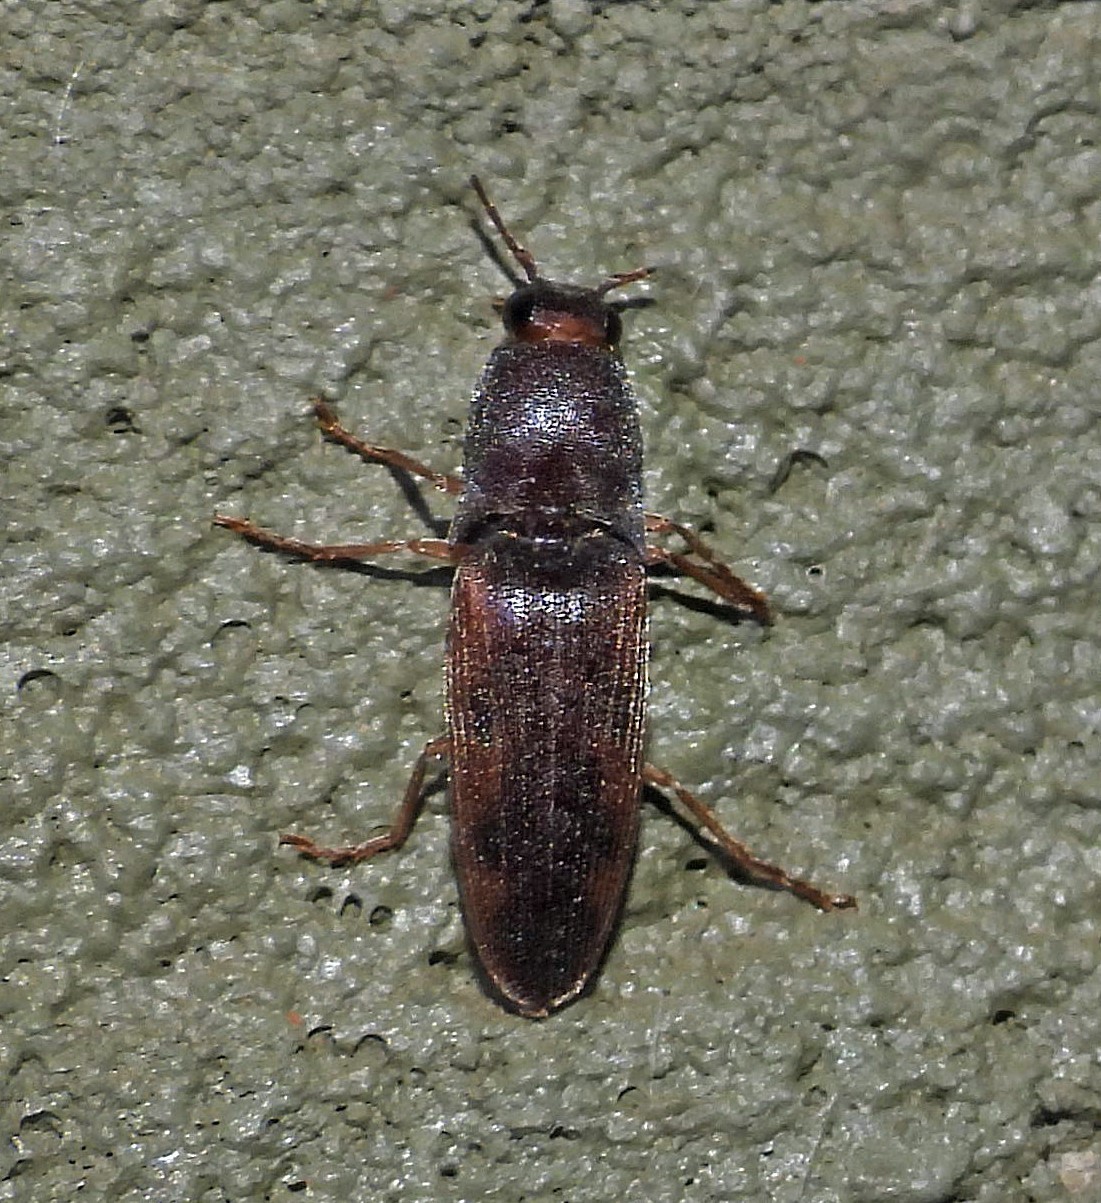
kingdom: Animalia
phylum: Arthropoda
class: Insecta
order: Coleoptera
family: Elateridae
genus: Monocrepidius
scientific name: Monocrepidius
